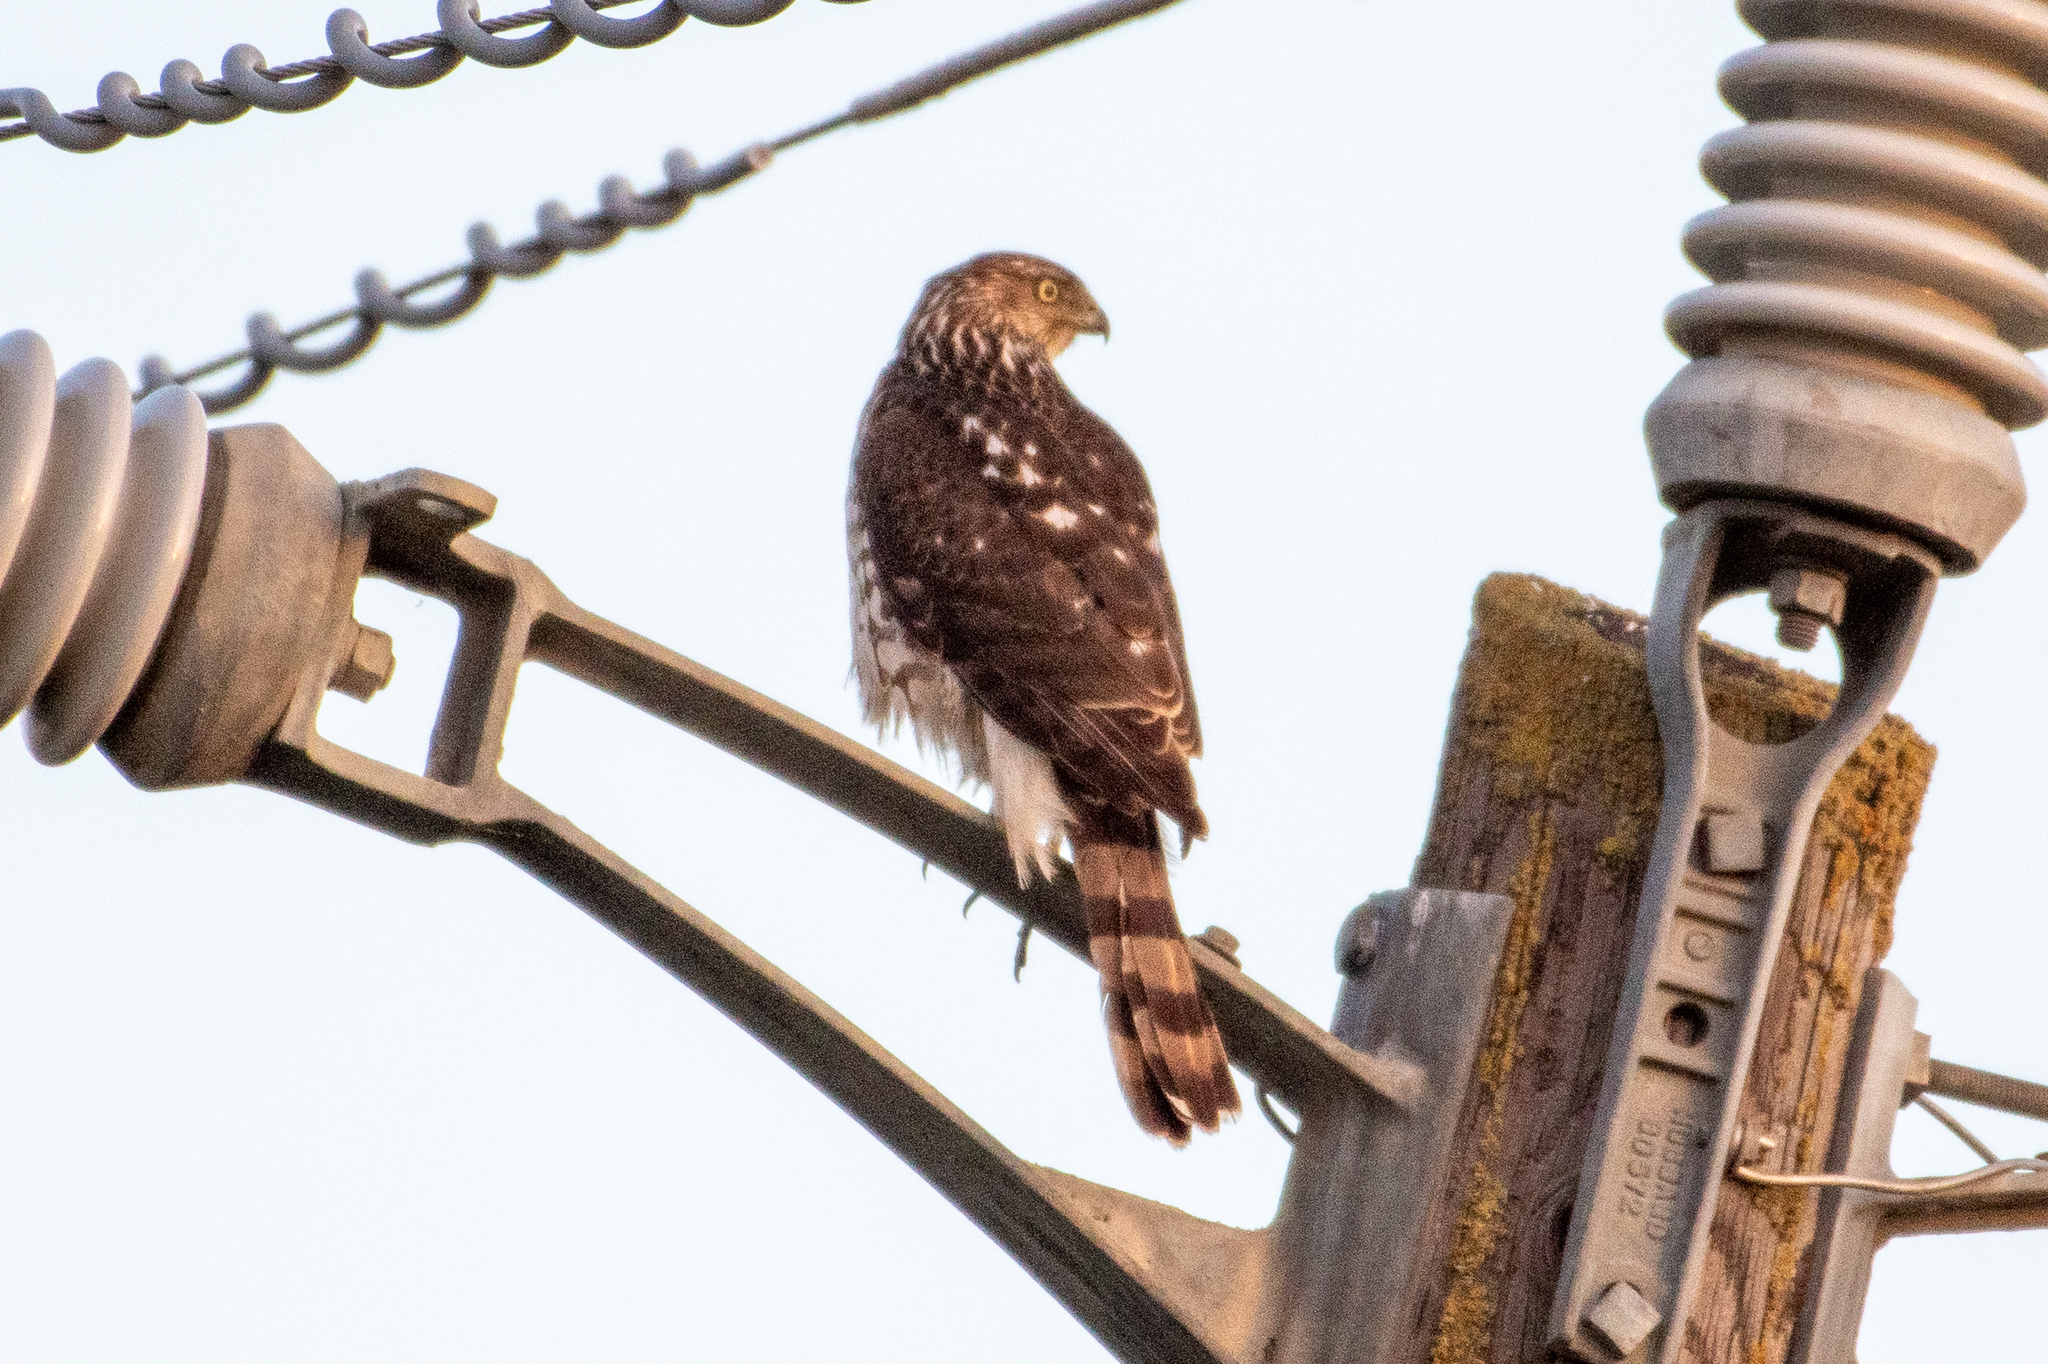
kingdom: Animalia
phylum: Chordata
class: Aves
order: Accipitriformes
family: Accipitridae
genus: Accipiter
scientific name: Accipiter cooperii
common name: Cooper's hawk
